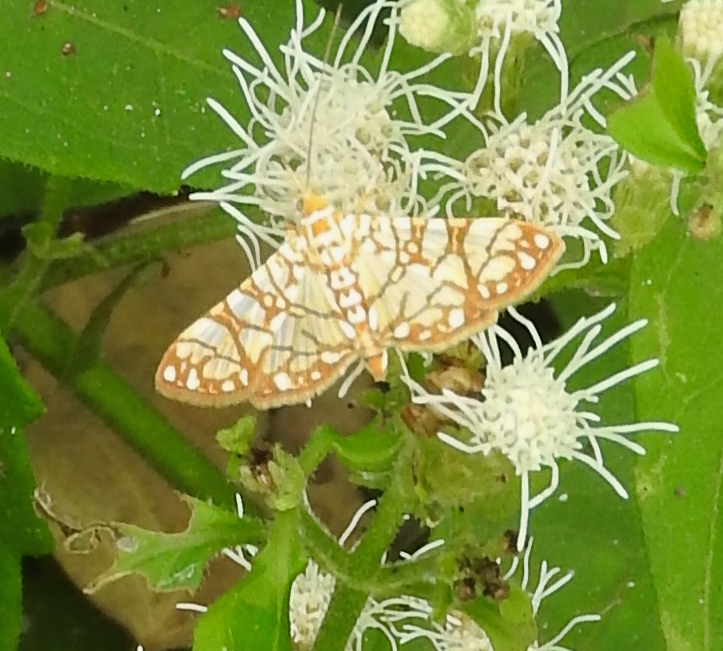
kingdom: Animalia
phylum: Arthropoda
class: Insecta
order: Lepidoptera
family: Crambidae
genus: Synclera
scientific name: Synclera traducalis
